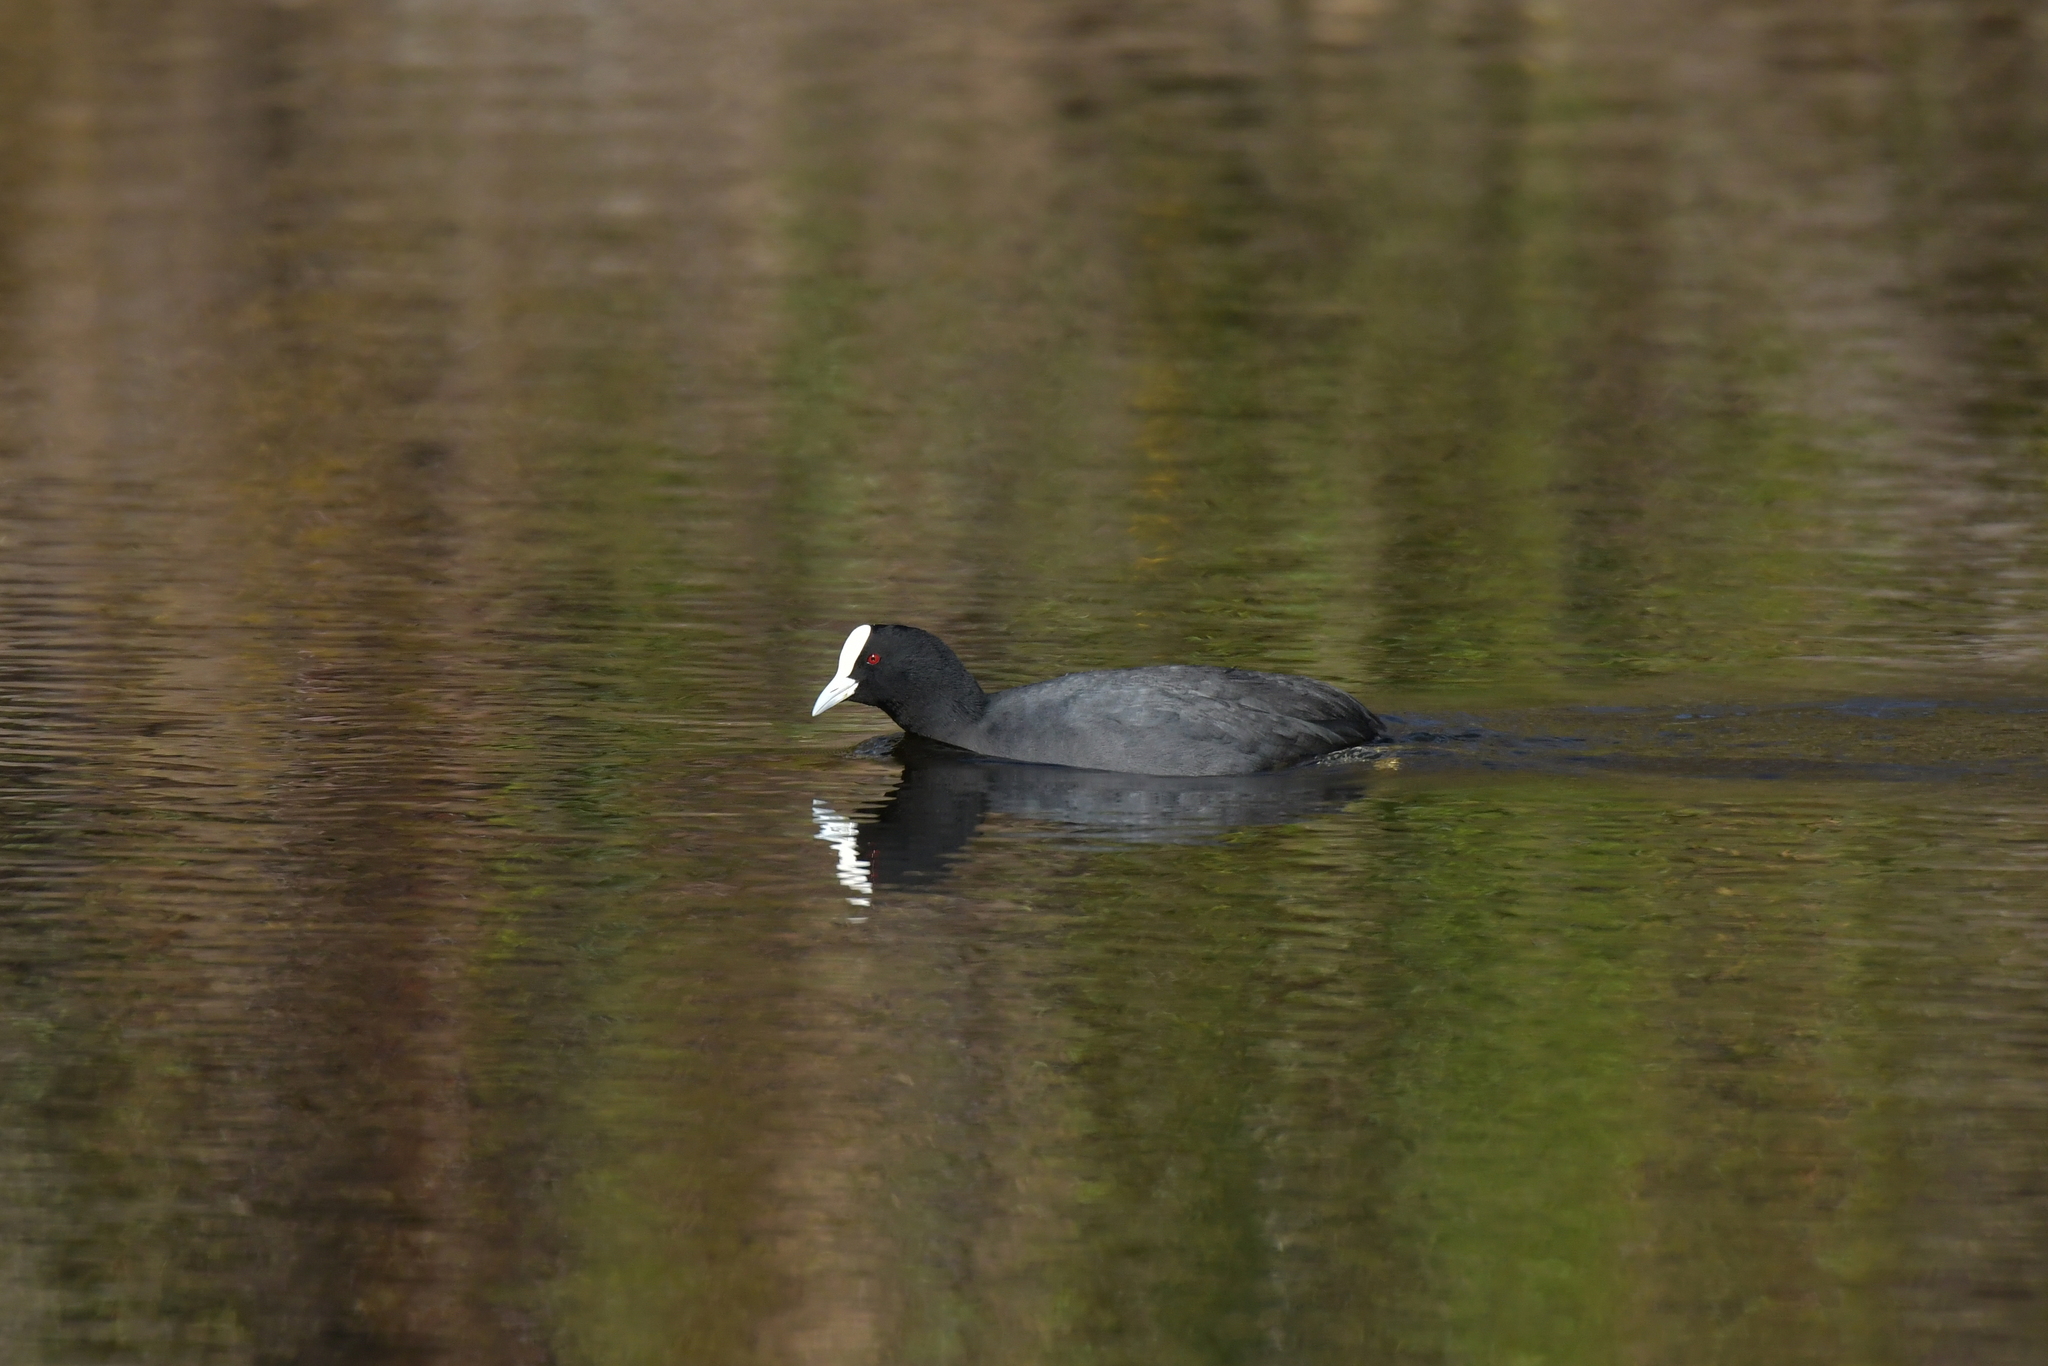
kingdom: Animalia
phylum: Chordata
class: Aves
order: Gruiformes
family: Rallidae
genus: Fulica
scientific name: Fulica atra
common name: Eurasian coot
